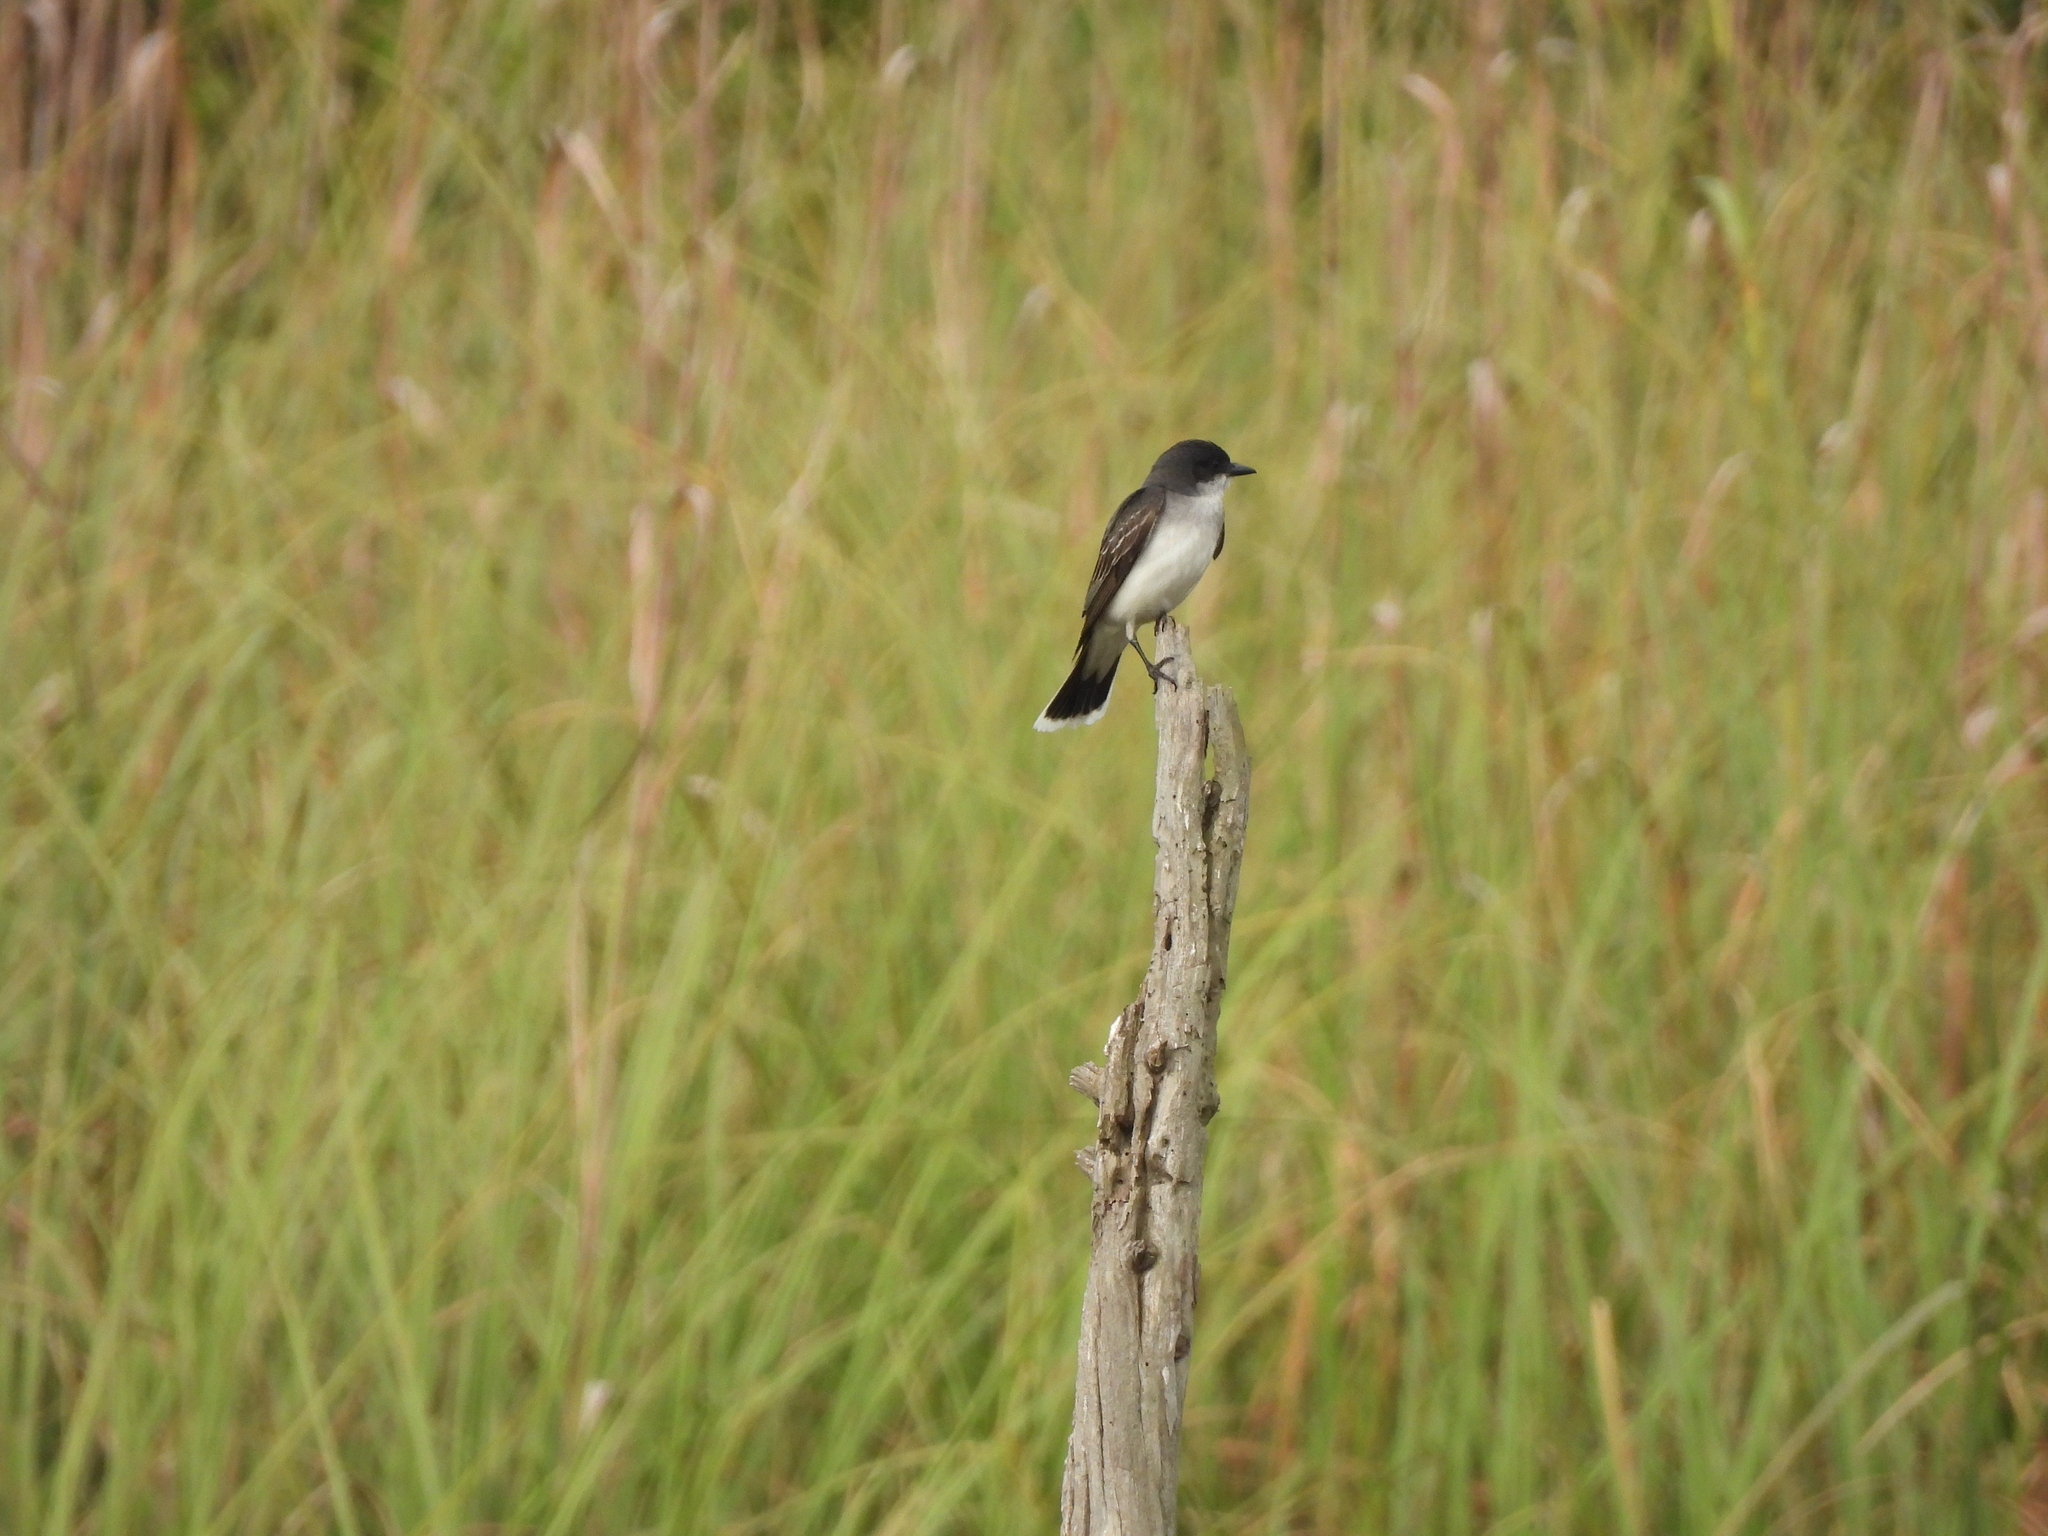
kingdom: Animalia
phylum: Chordata
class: Aves
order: Passeriformes
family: Tyrannidae
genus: Tyrannus
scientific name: Tyrannus tyrannus
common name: Eastern kingbird
